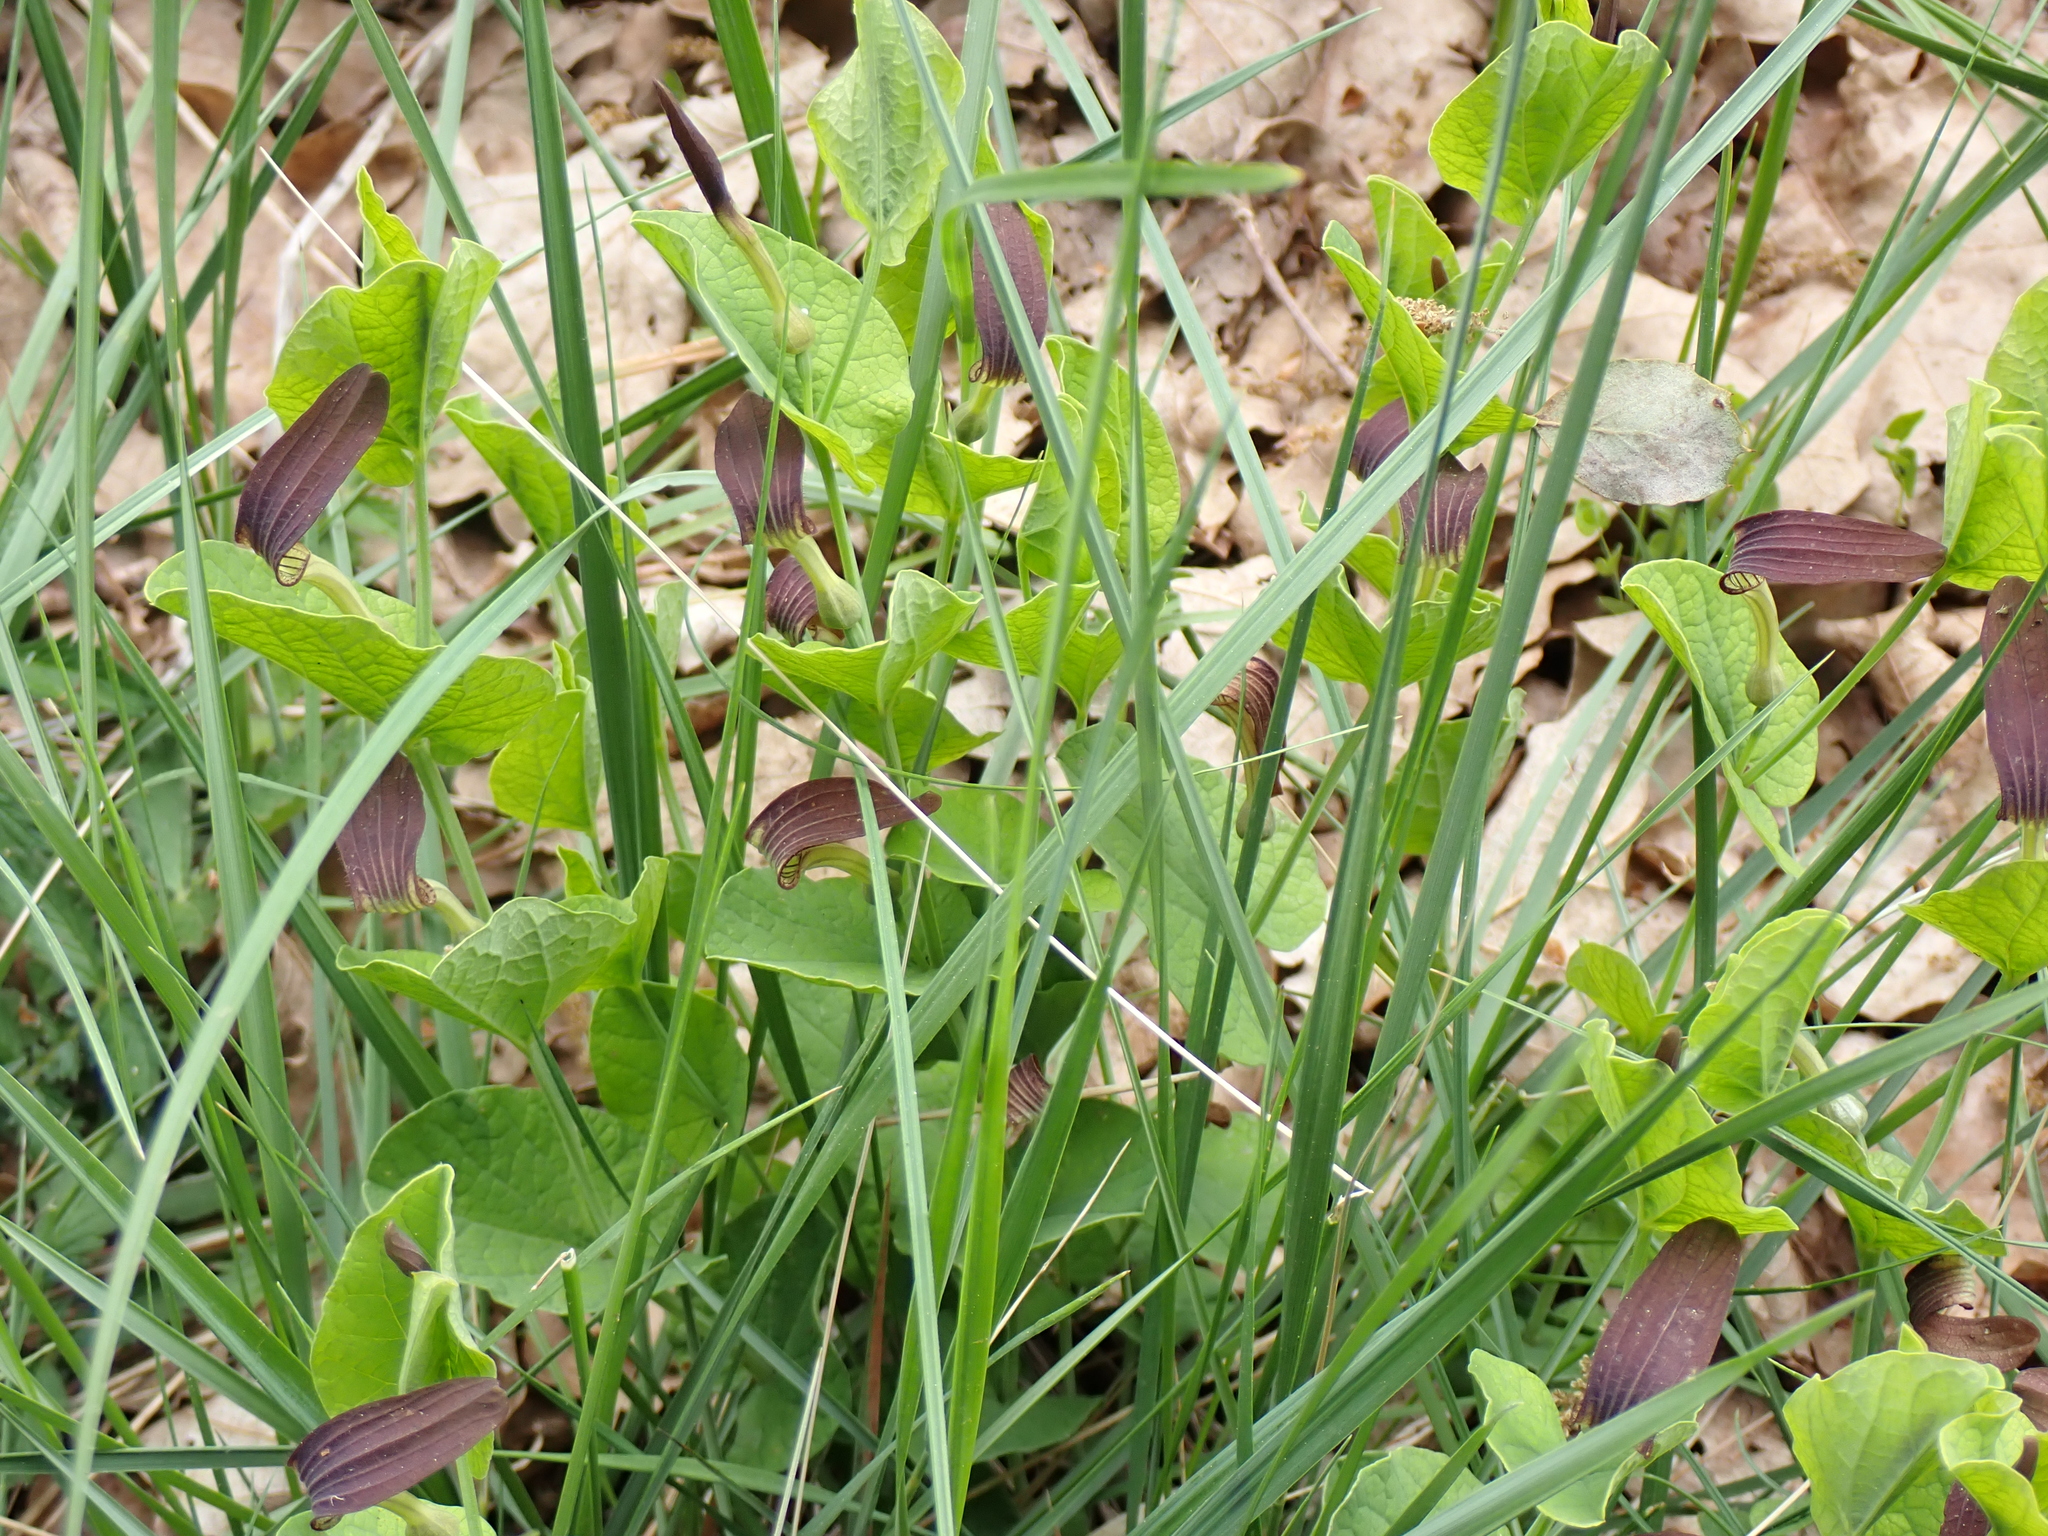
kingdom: Plantae
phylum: Tracheophyta
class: Magnoliopsida
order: Piperales
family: Aristolochiaceae
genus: Aristolochia
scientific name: Aristolochia rotunda
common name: Smearwort
